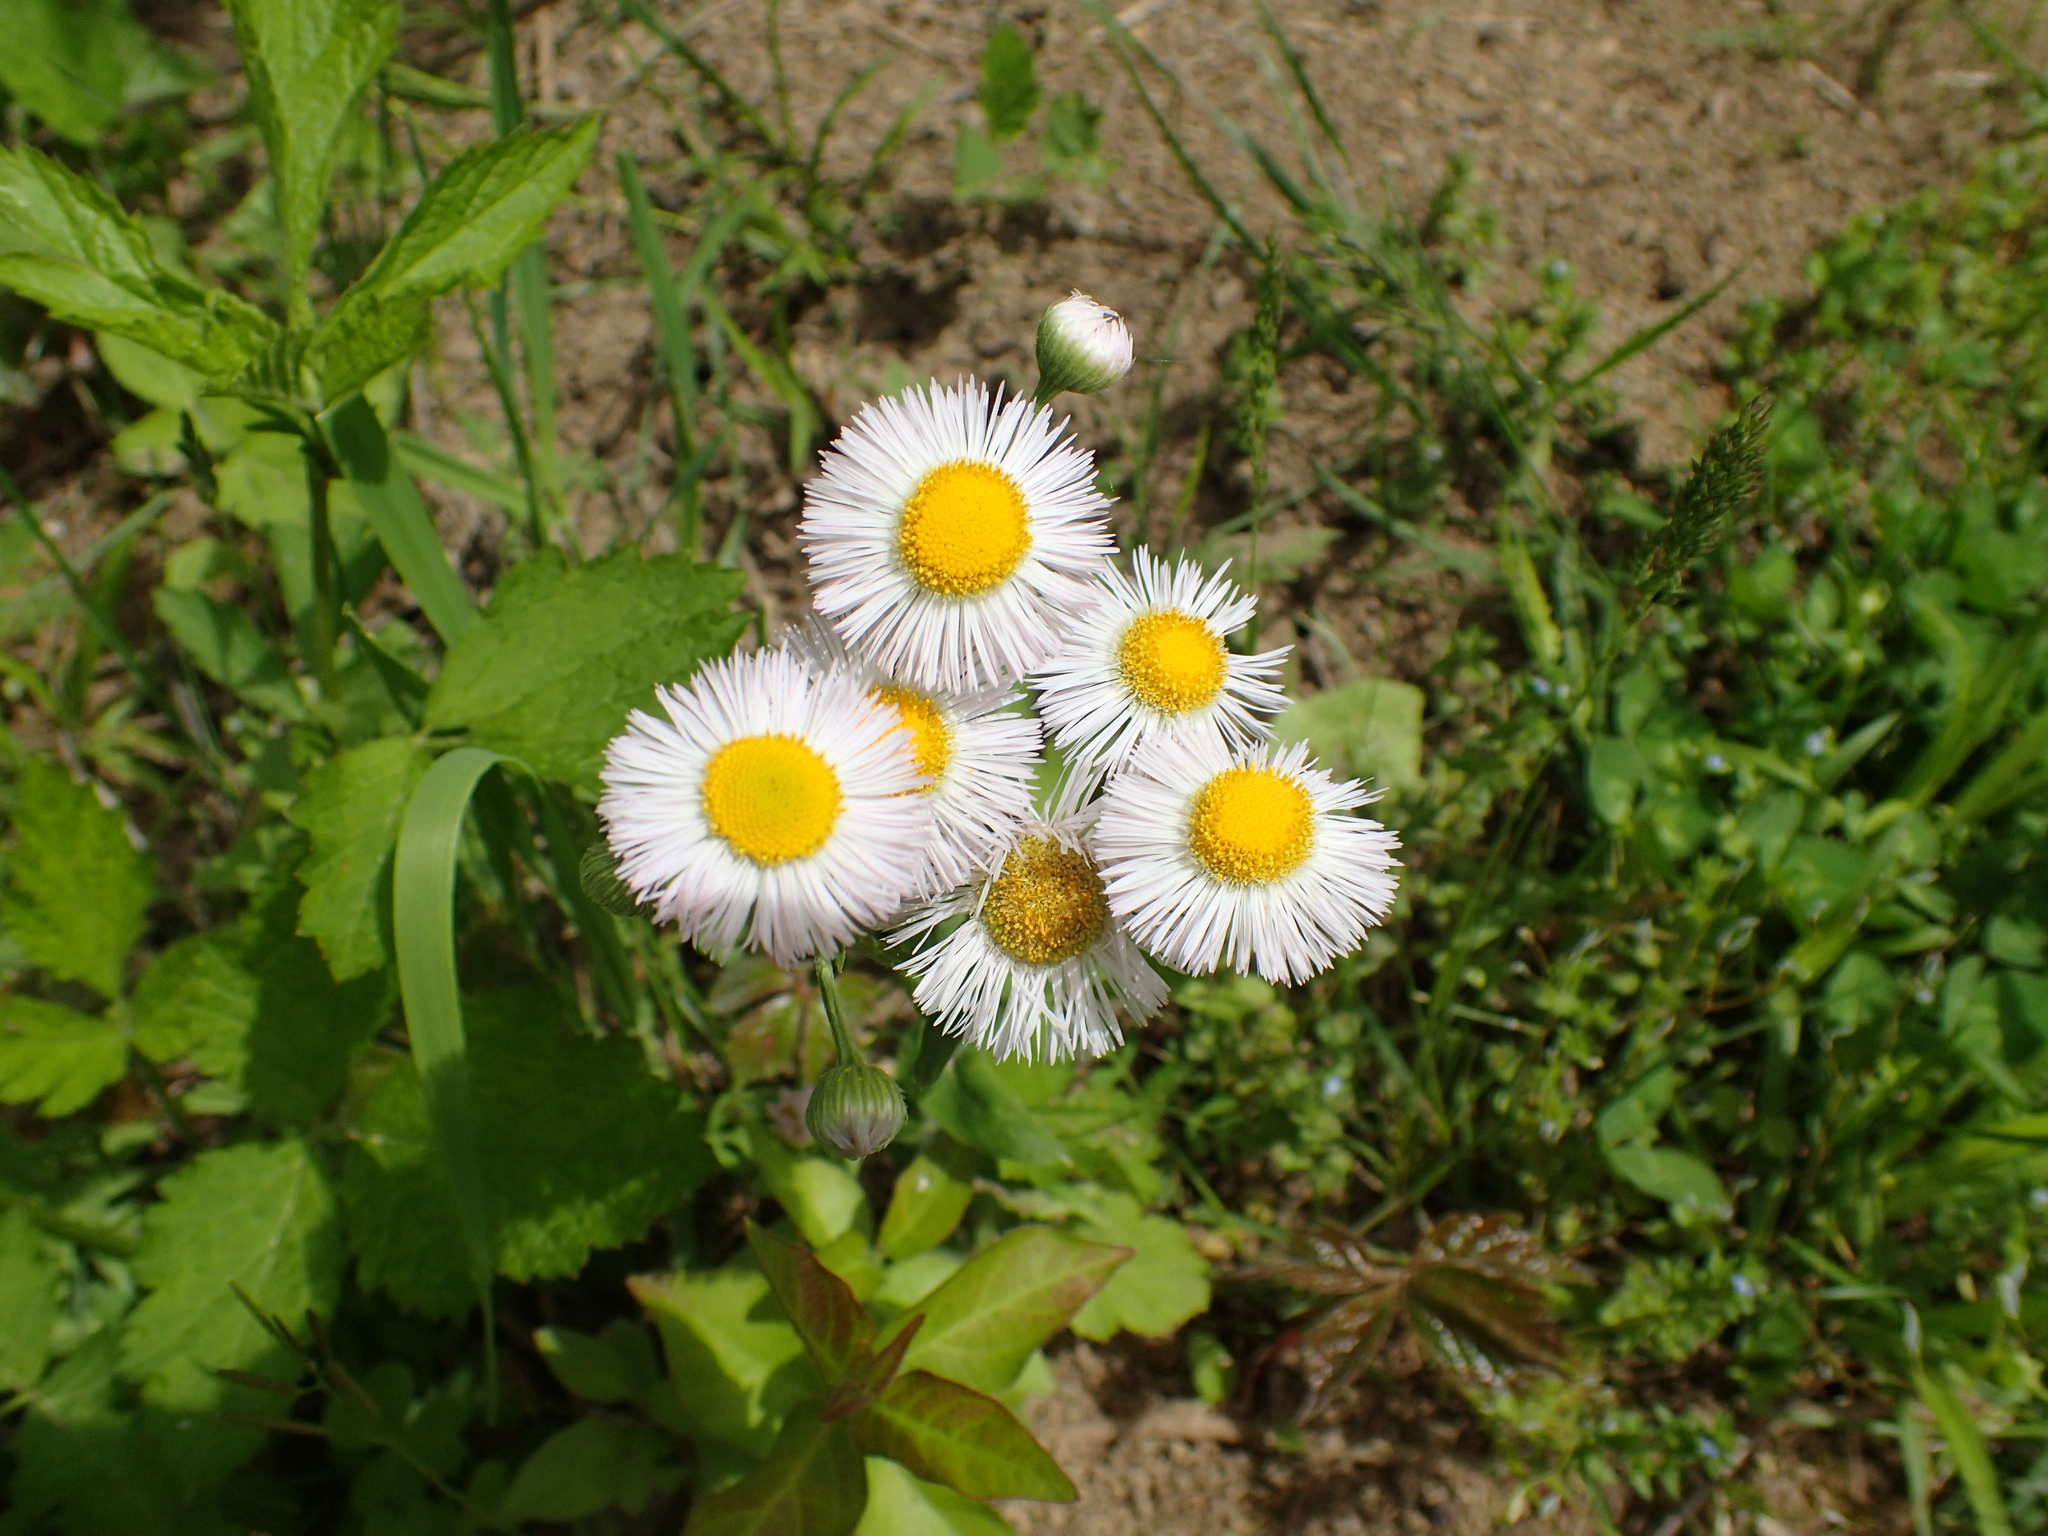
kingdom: Plantae
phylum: Tracheophyta
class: Magnoliopsida
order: Asterales
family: Asteraceae
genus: Erigeron
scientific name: Erigeron philadelphicus
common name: Robin's-plantain
